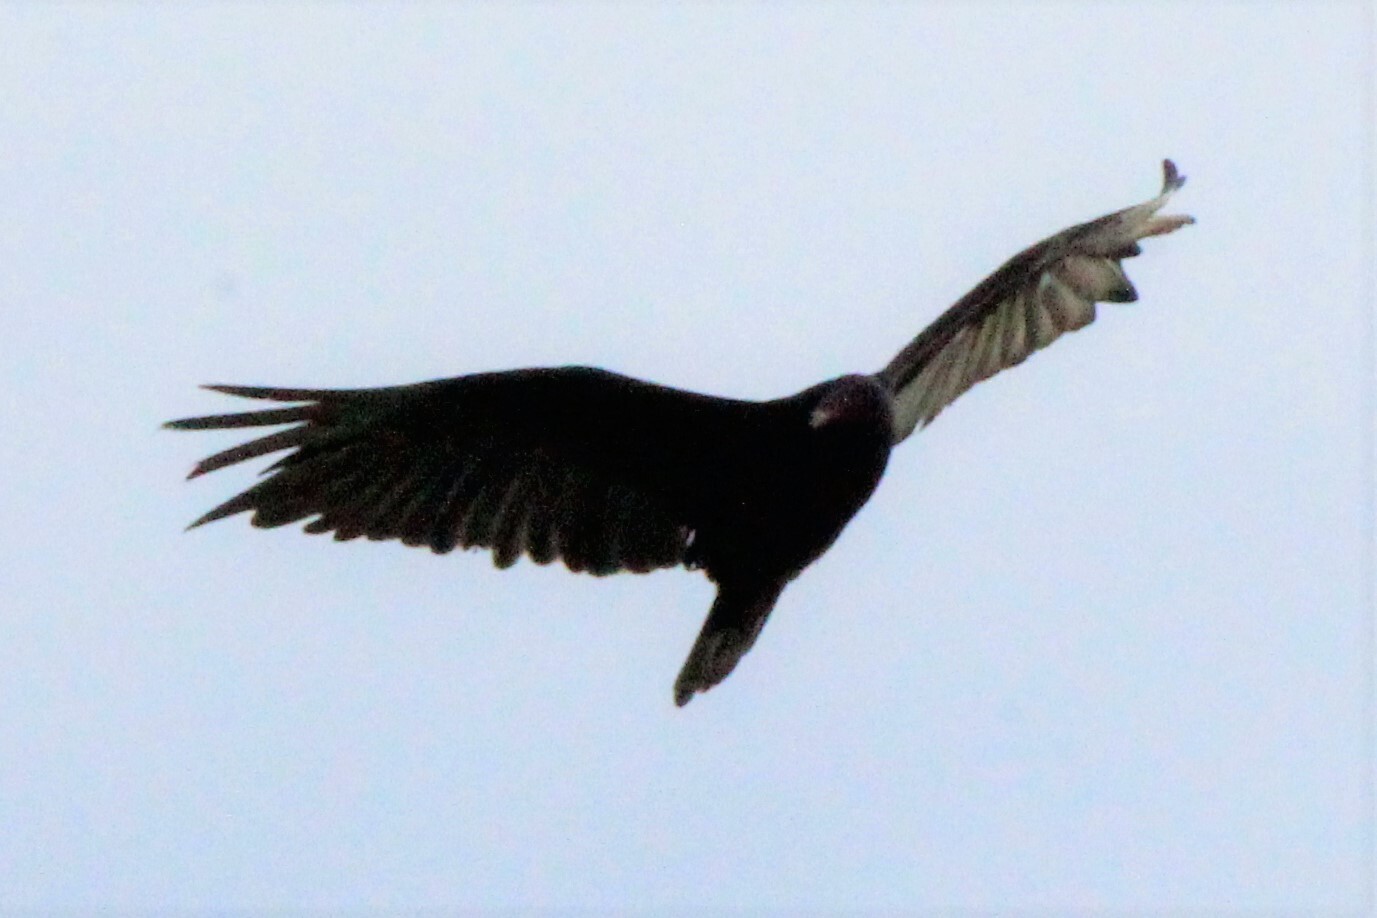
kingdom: Animalia
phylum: Chordata
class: Aves
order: Accipitriformes
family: Cathartidae
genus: Cathartes
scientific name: Cathartes aura
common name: Turkey vulture
